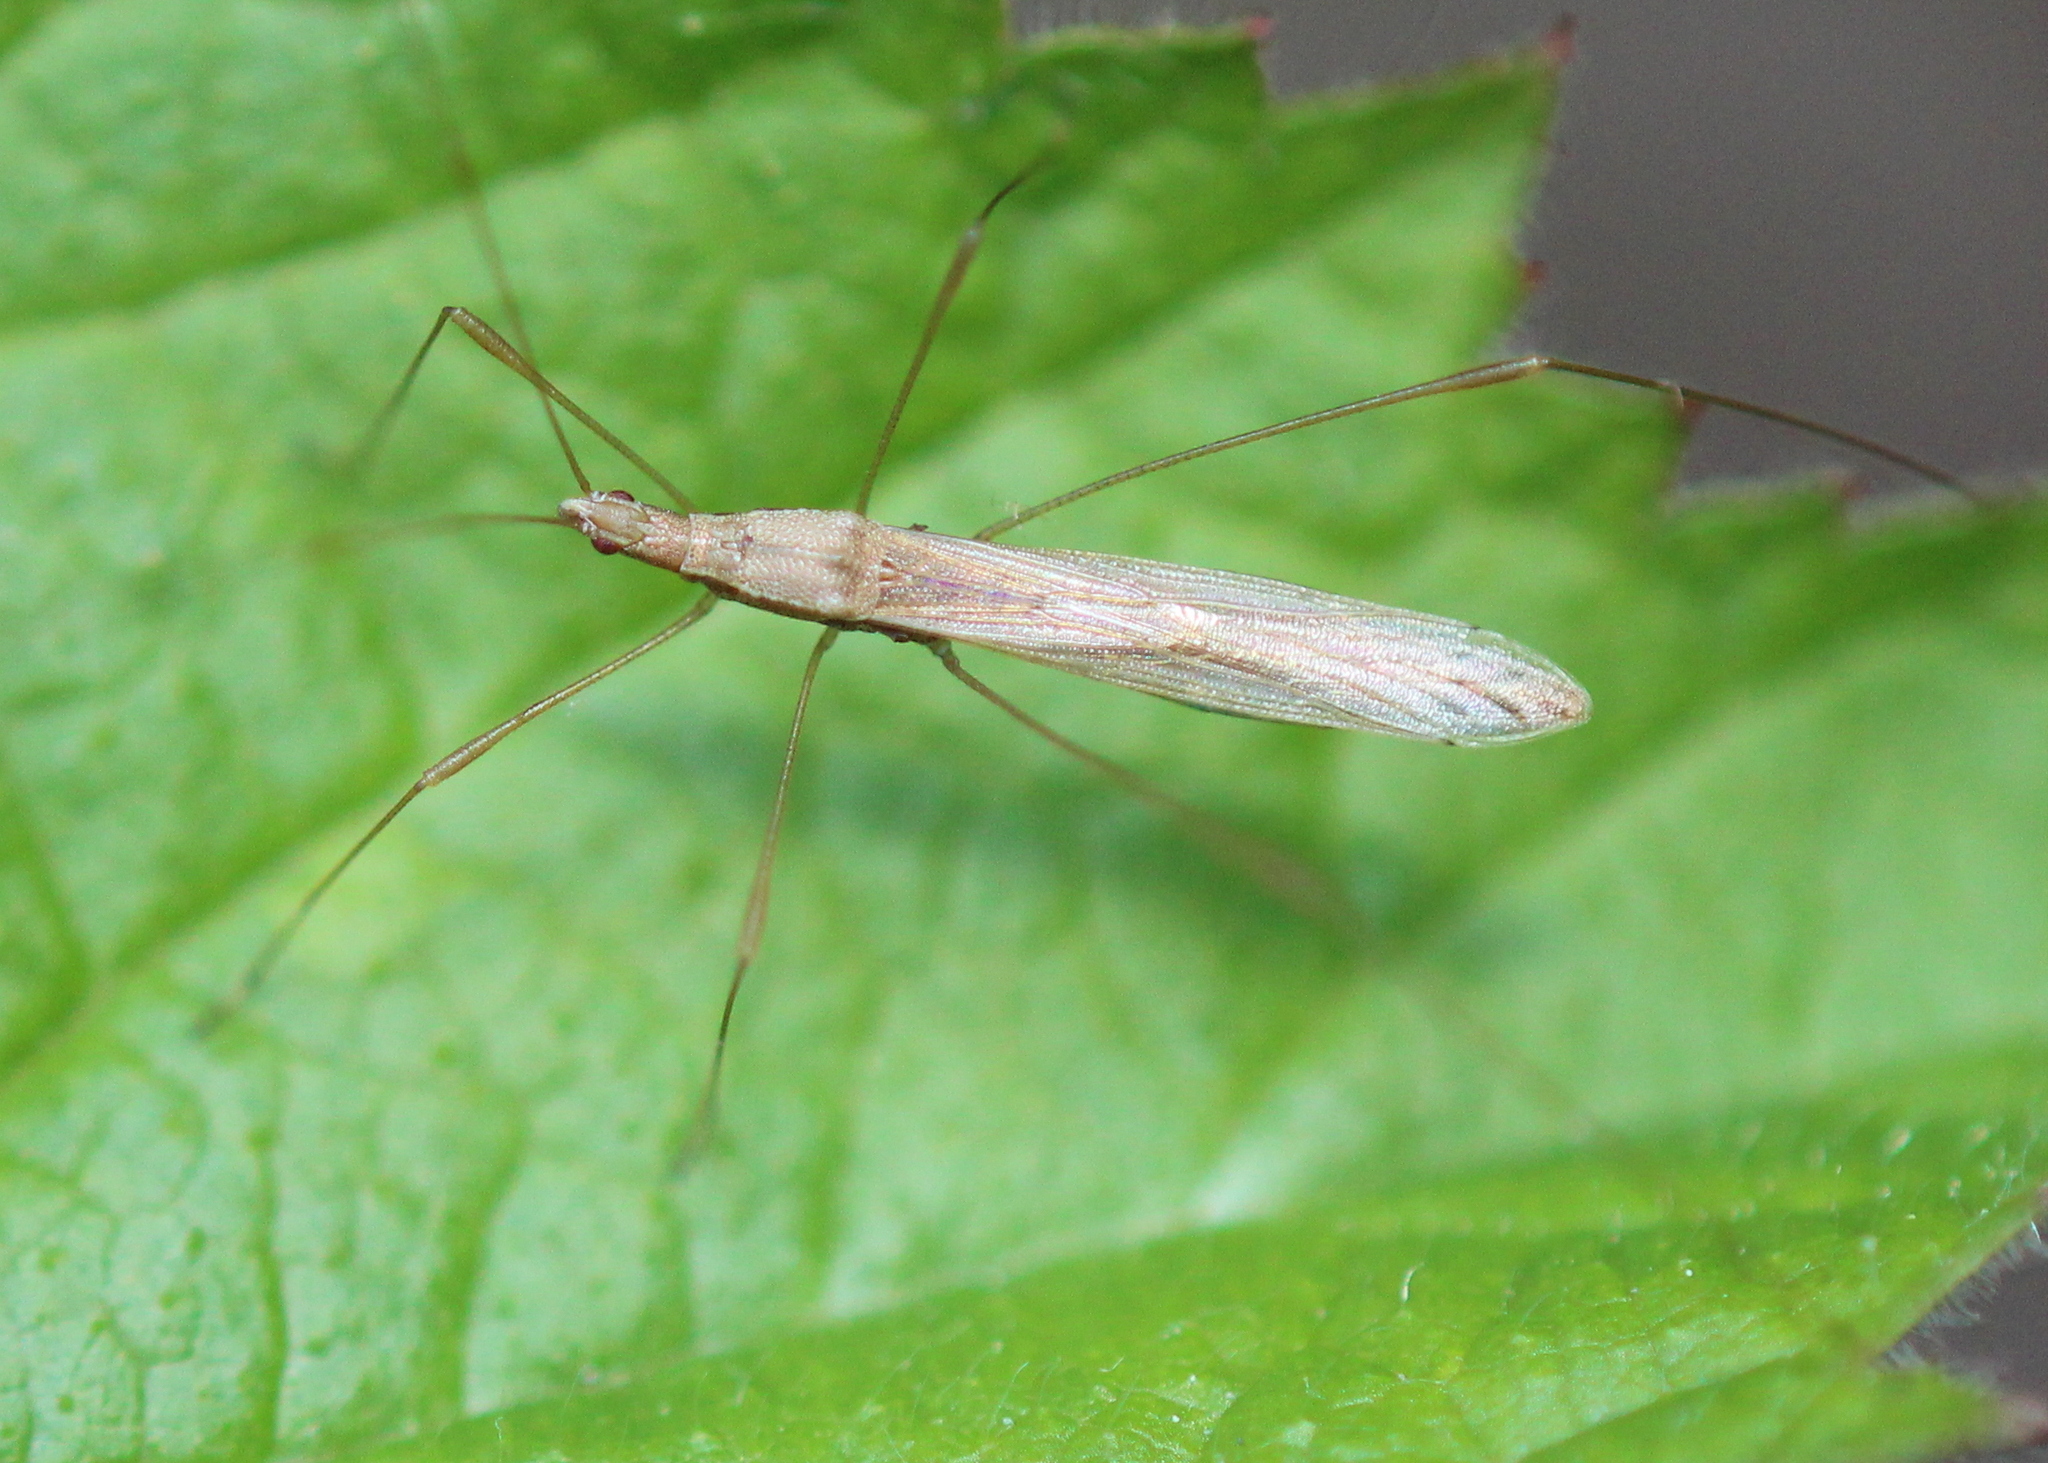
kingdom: Animalia
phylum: Arthropoda
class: Insecta
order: Hemiptera
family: Berytidae
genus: Neoneides
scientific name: Neoneides muticus
